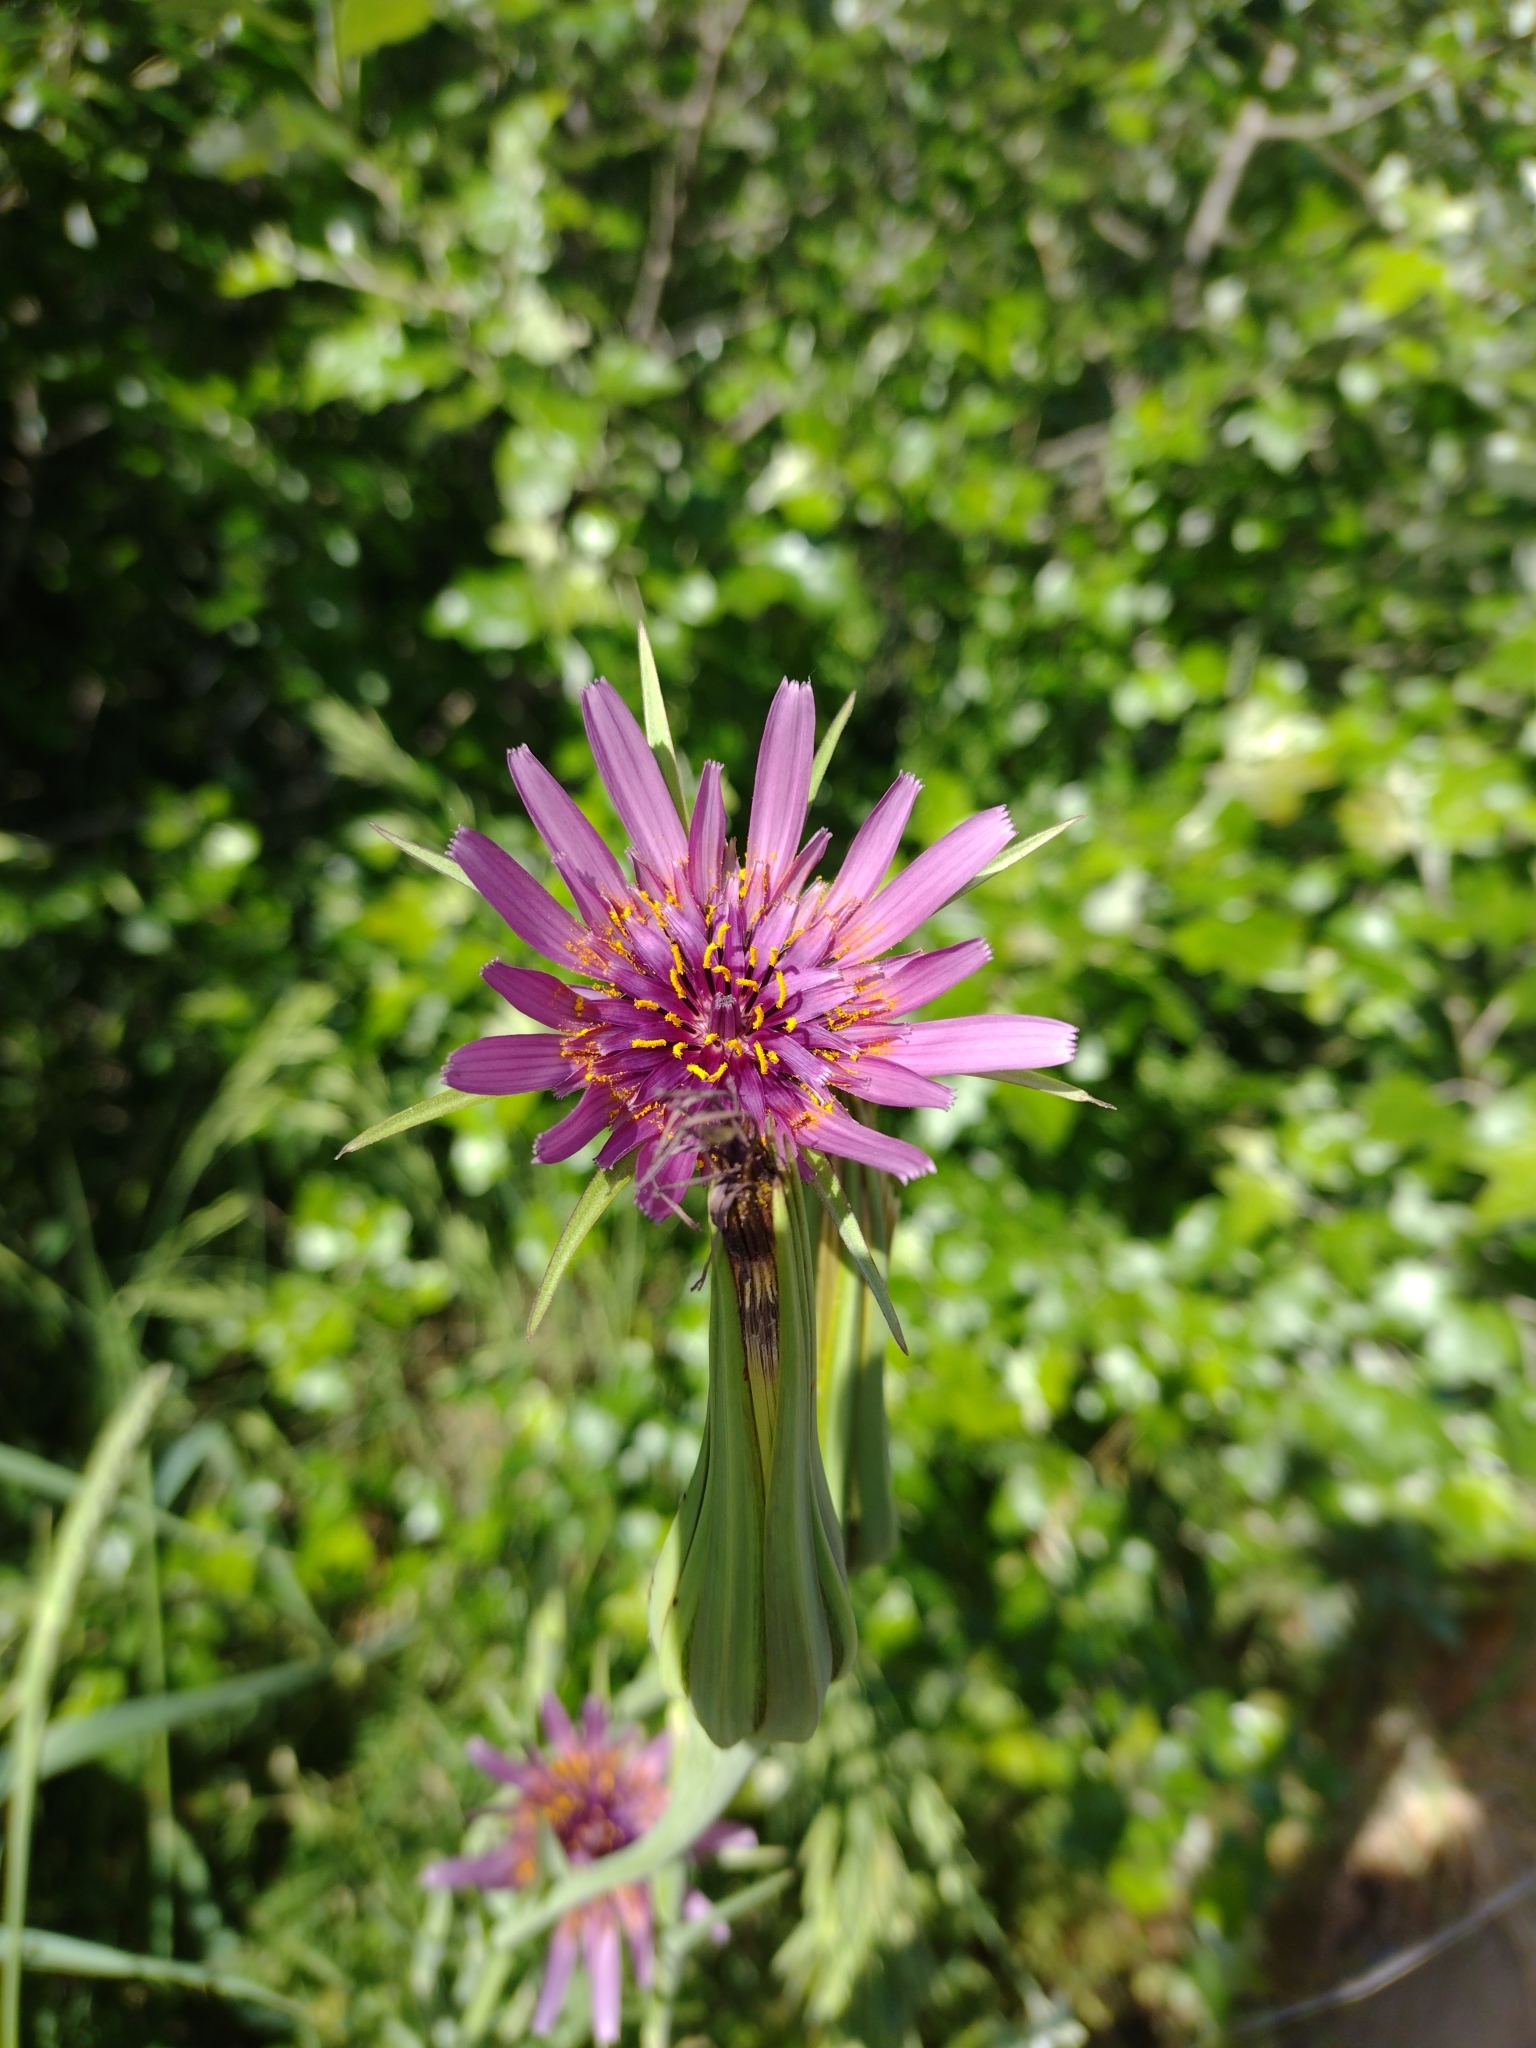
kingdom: Plantae
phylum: Tracheophyta
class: Magnoliopsida
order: Asterales
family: Asteraceae
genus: Tragopogon
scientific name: Tragopogon porrifolius
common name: Salsify
